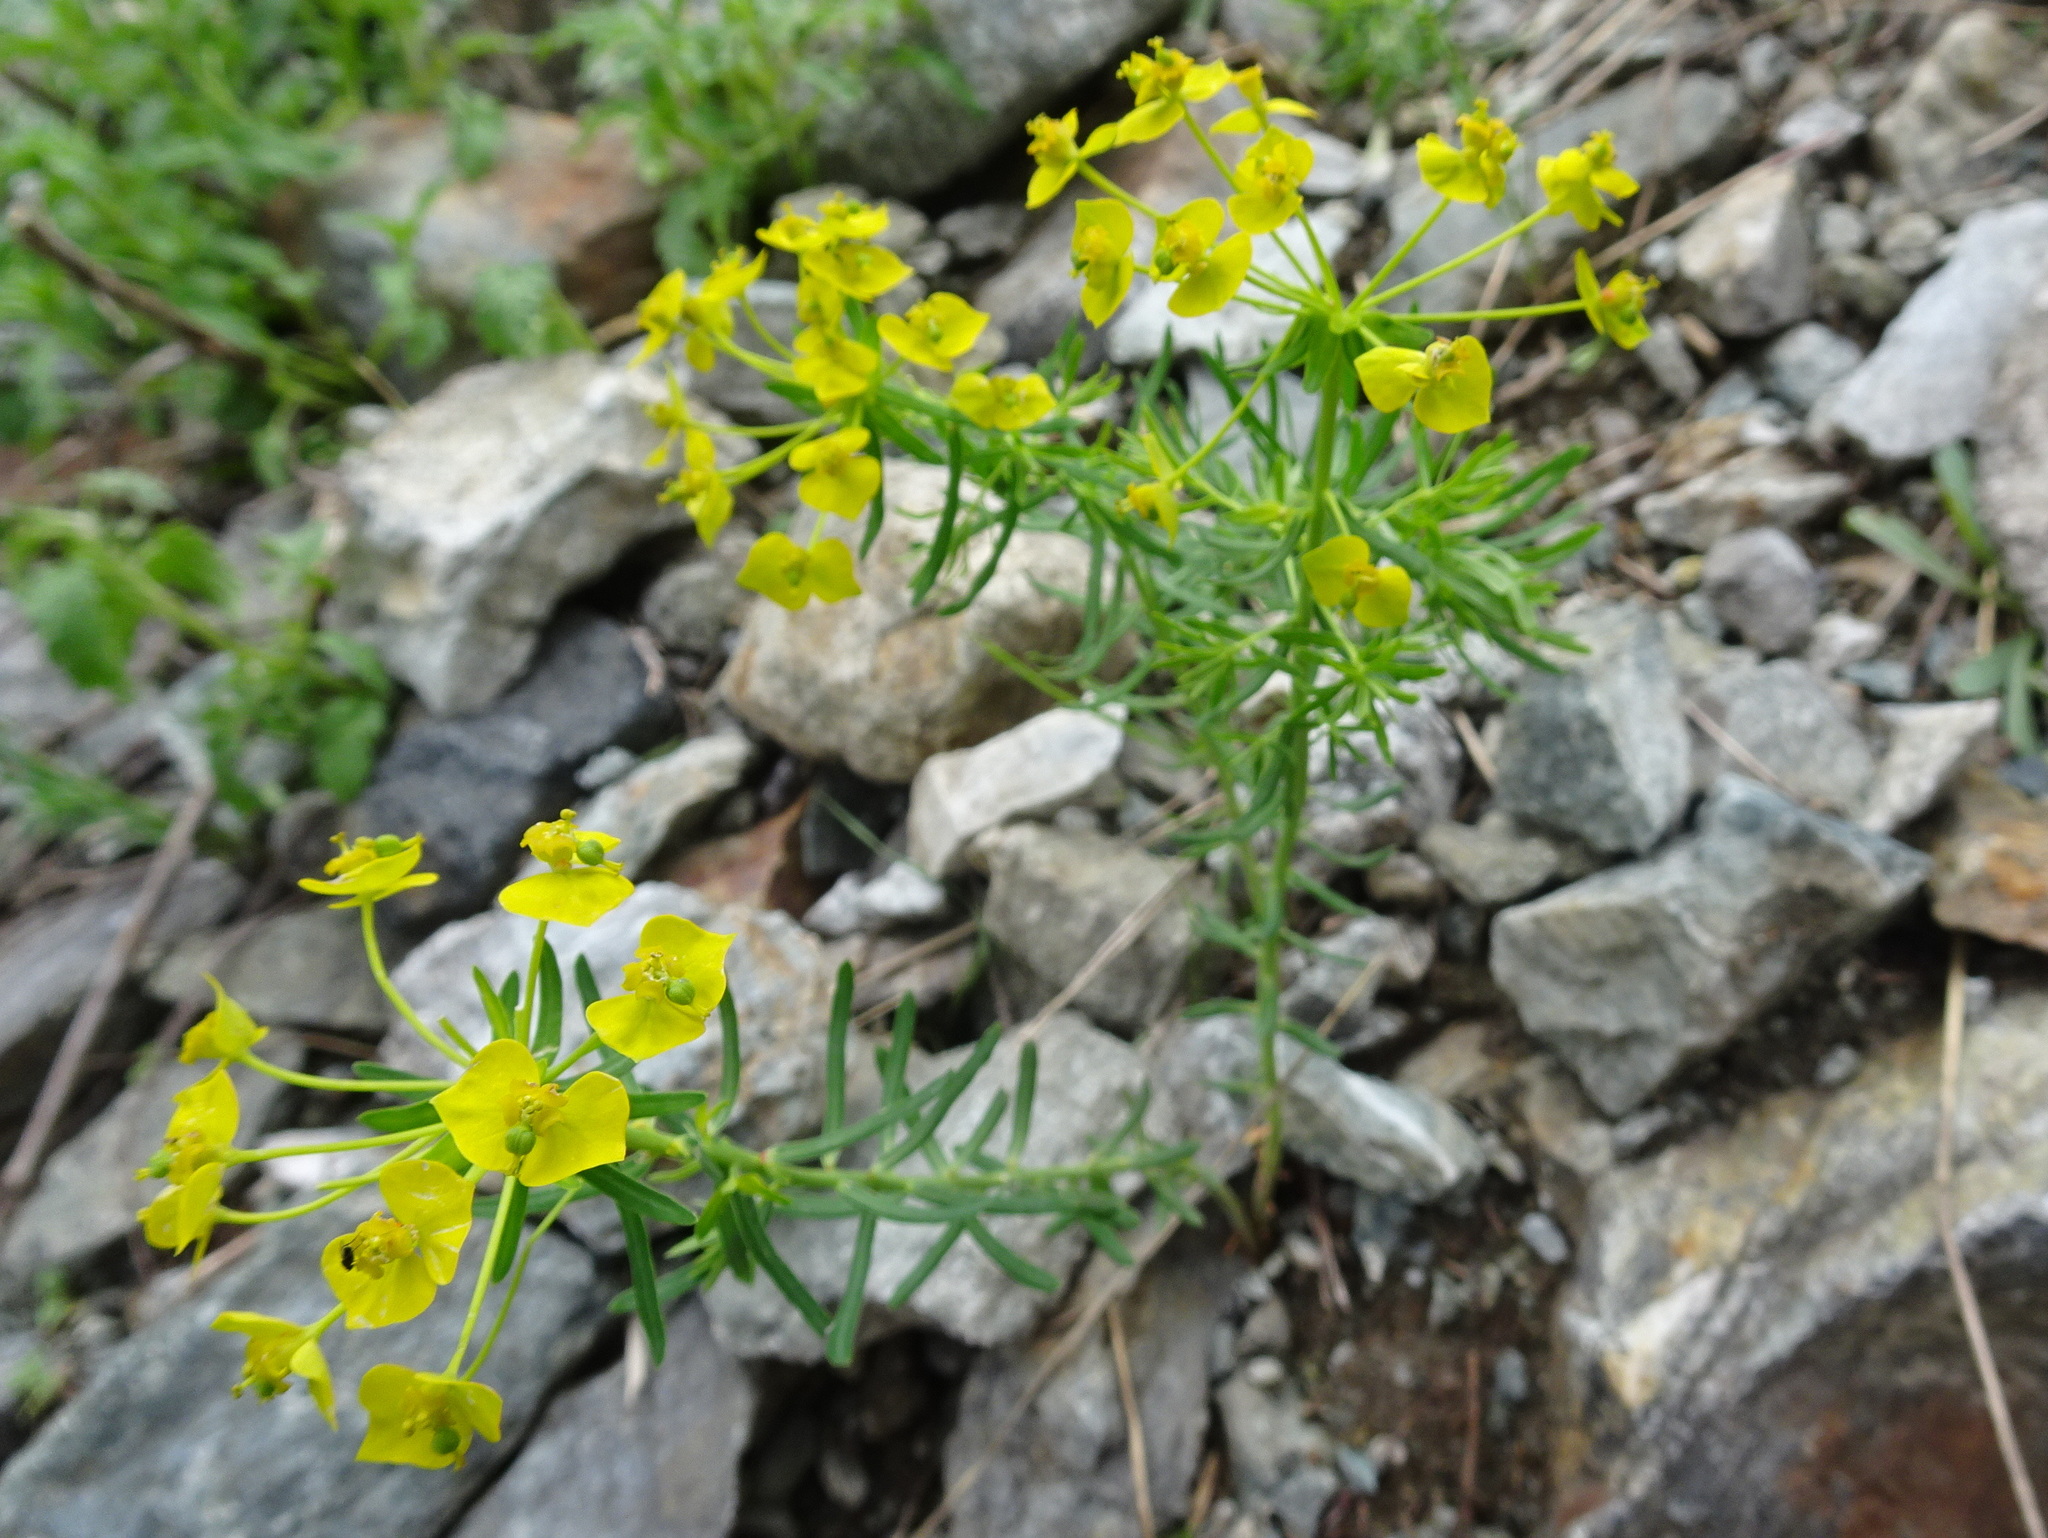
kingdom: Plantae
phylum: Tracheophyta
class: Magnoliopsida
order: Malpighiales
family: Euphorbiaceae
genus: Euphorbia
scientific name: Euphorbia cyparissias
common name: Cypress spurge
